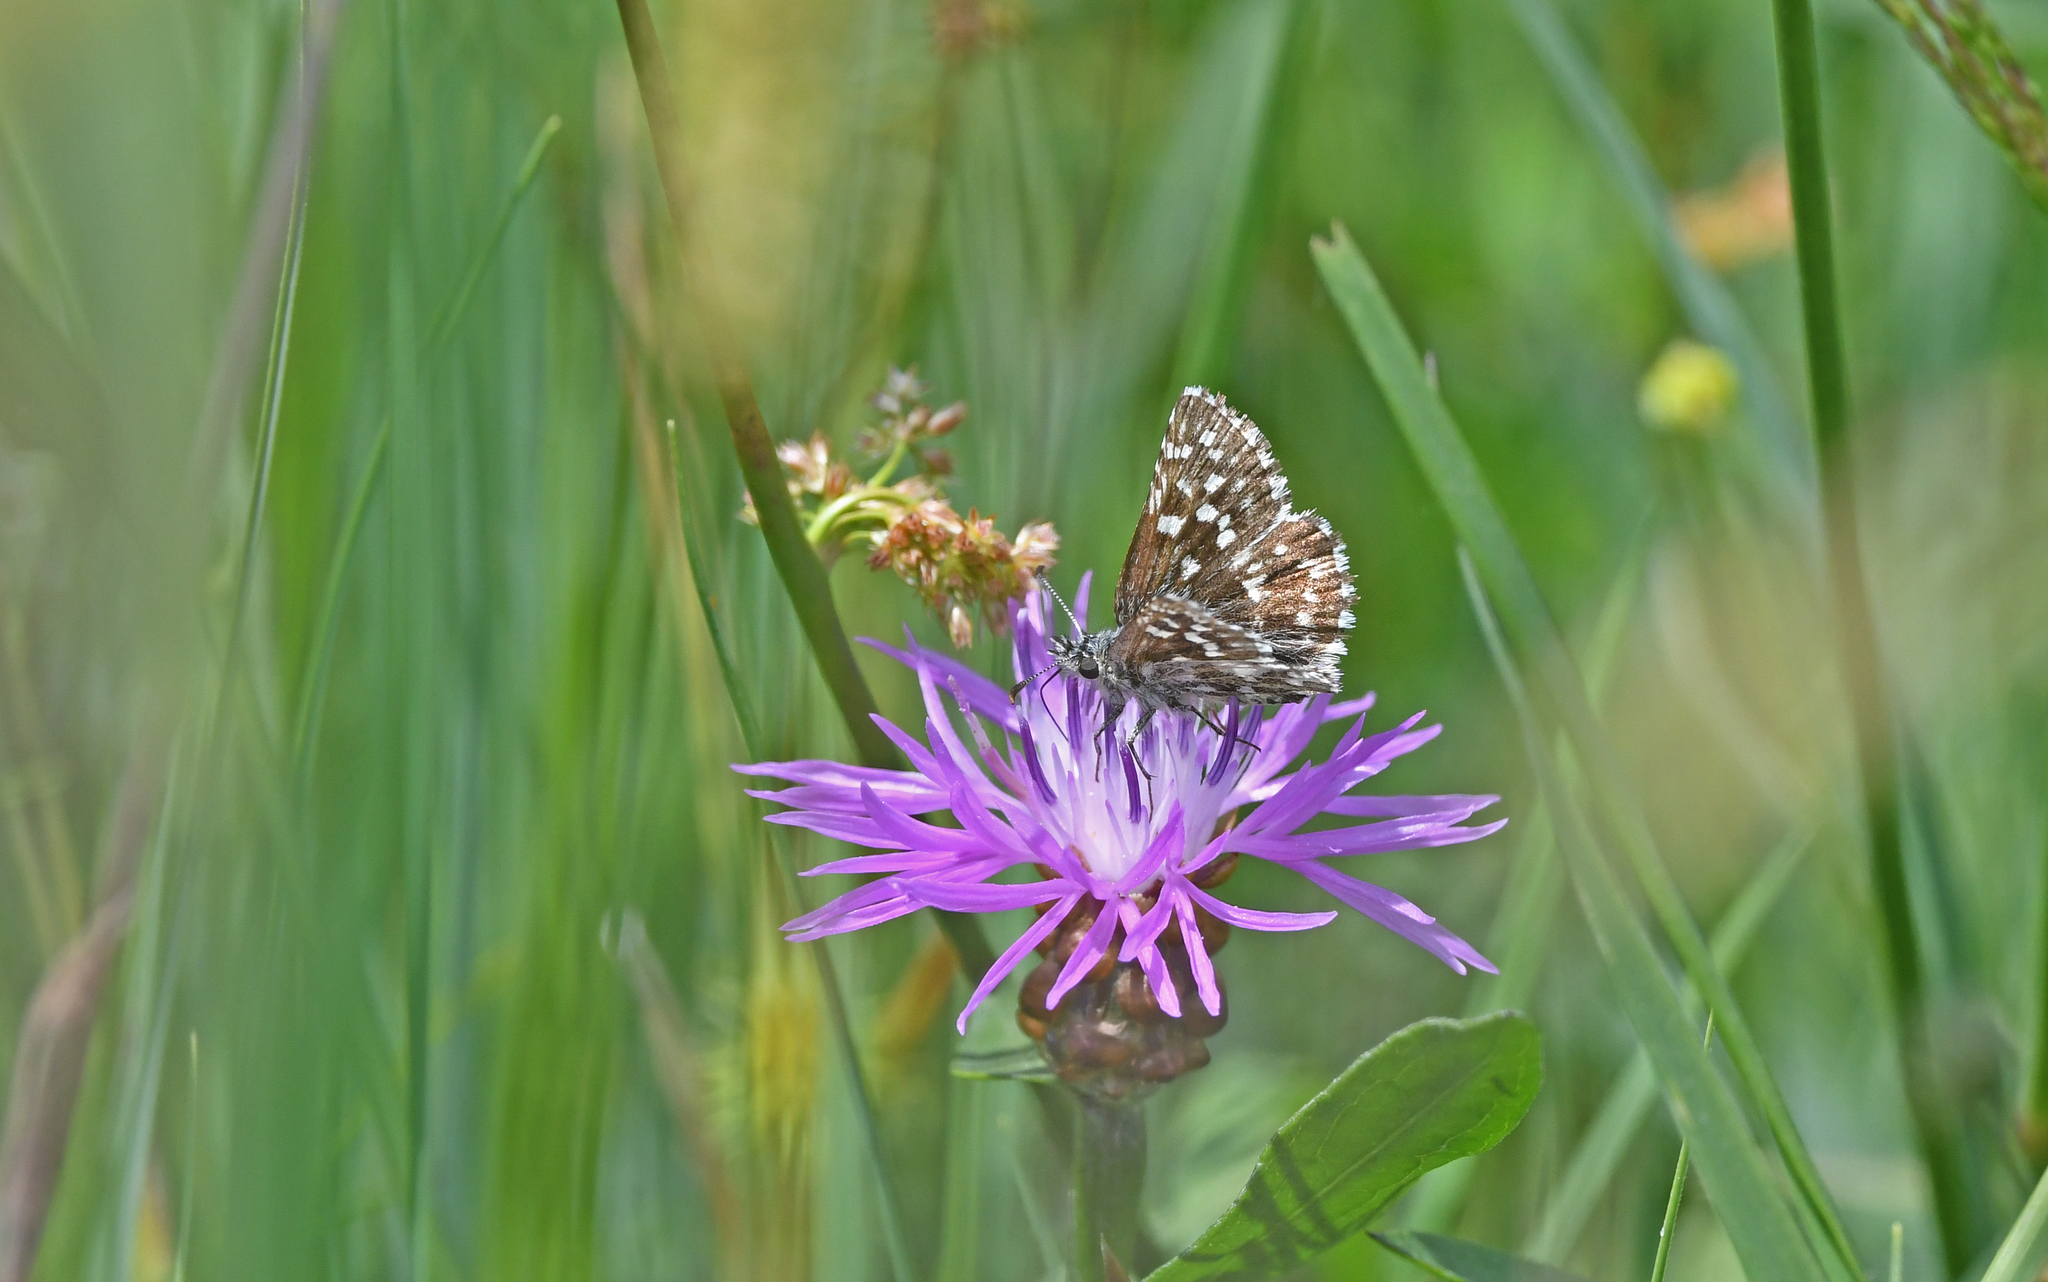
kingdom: Animalia
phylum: Arthropoda
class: Insecta
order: Lepidoptera
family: Hesperiidae
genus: Pyrgus
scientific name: Pyrgus malvae
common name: Grizzled skipper
